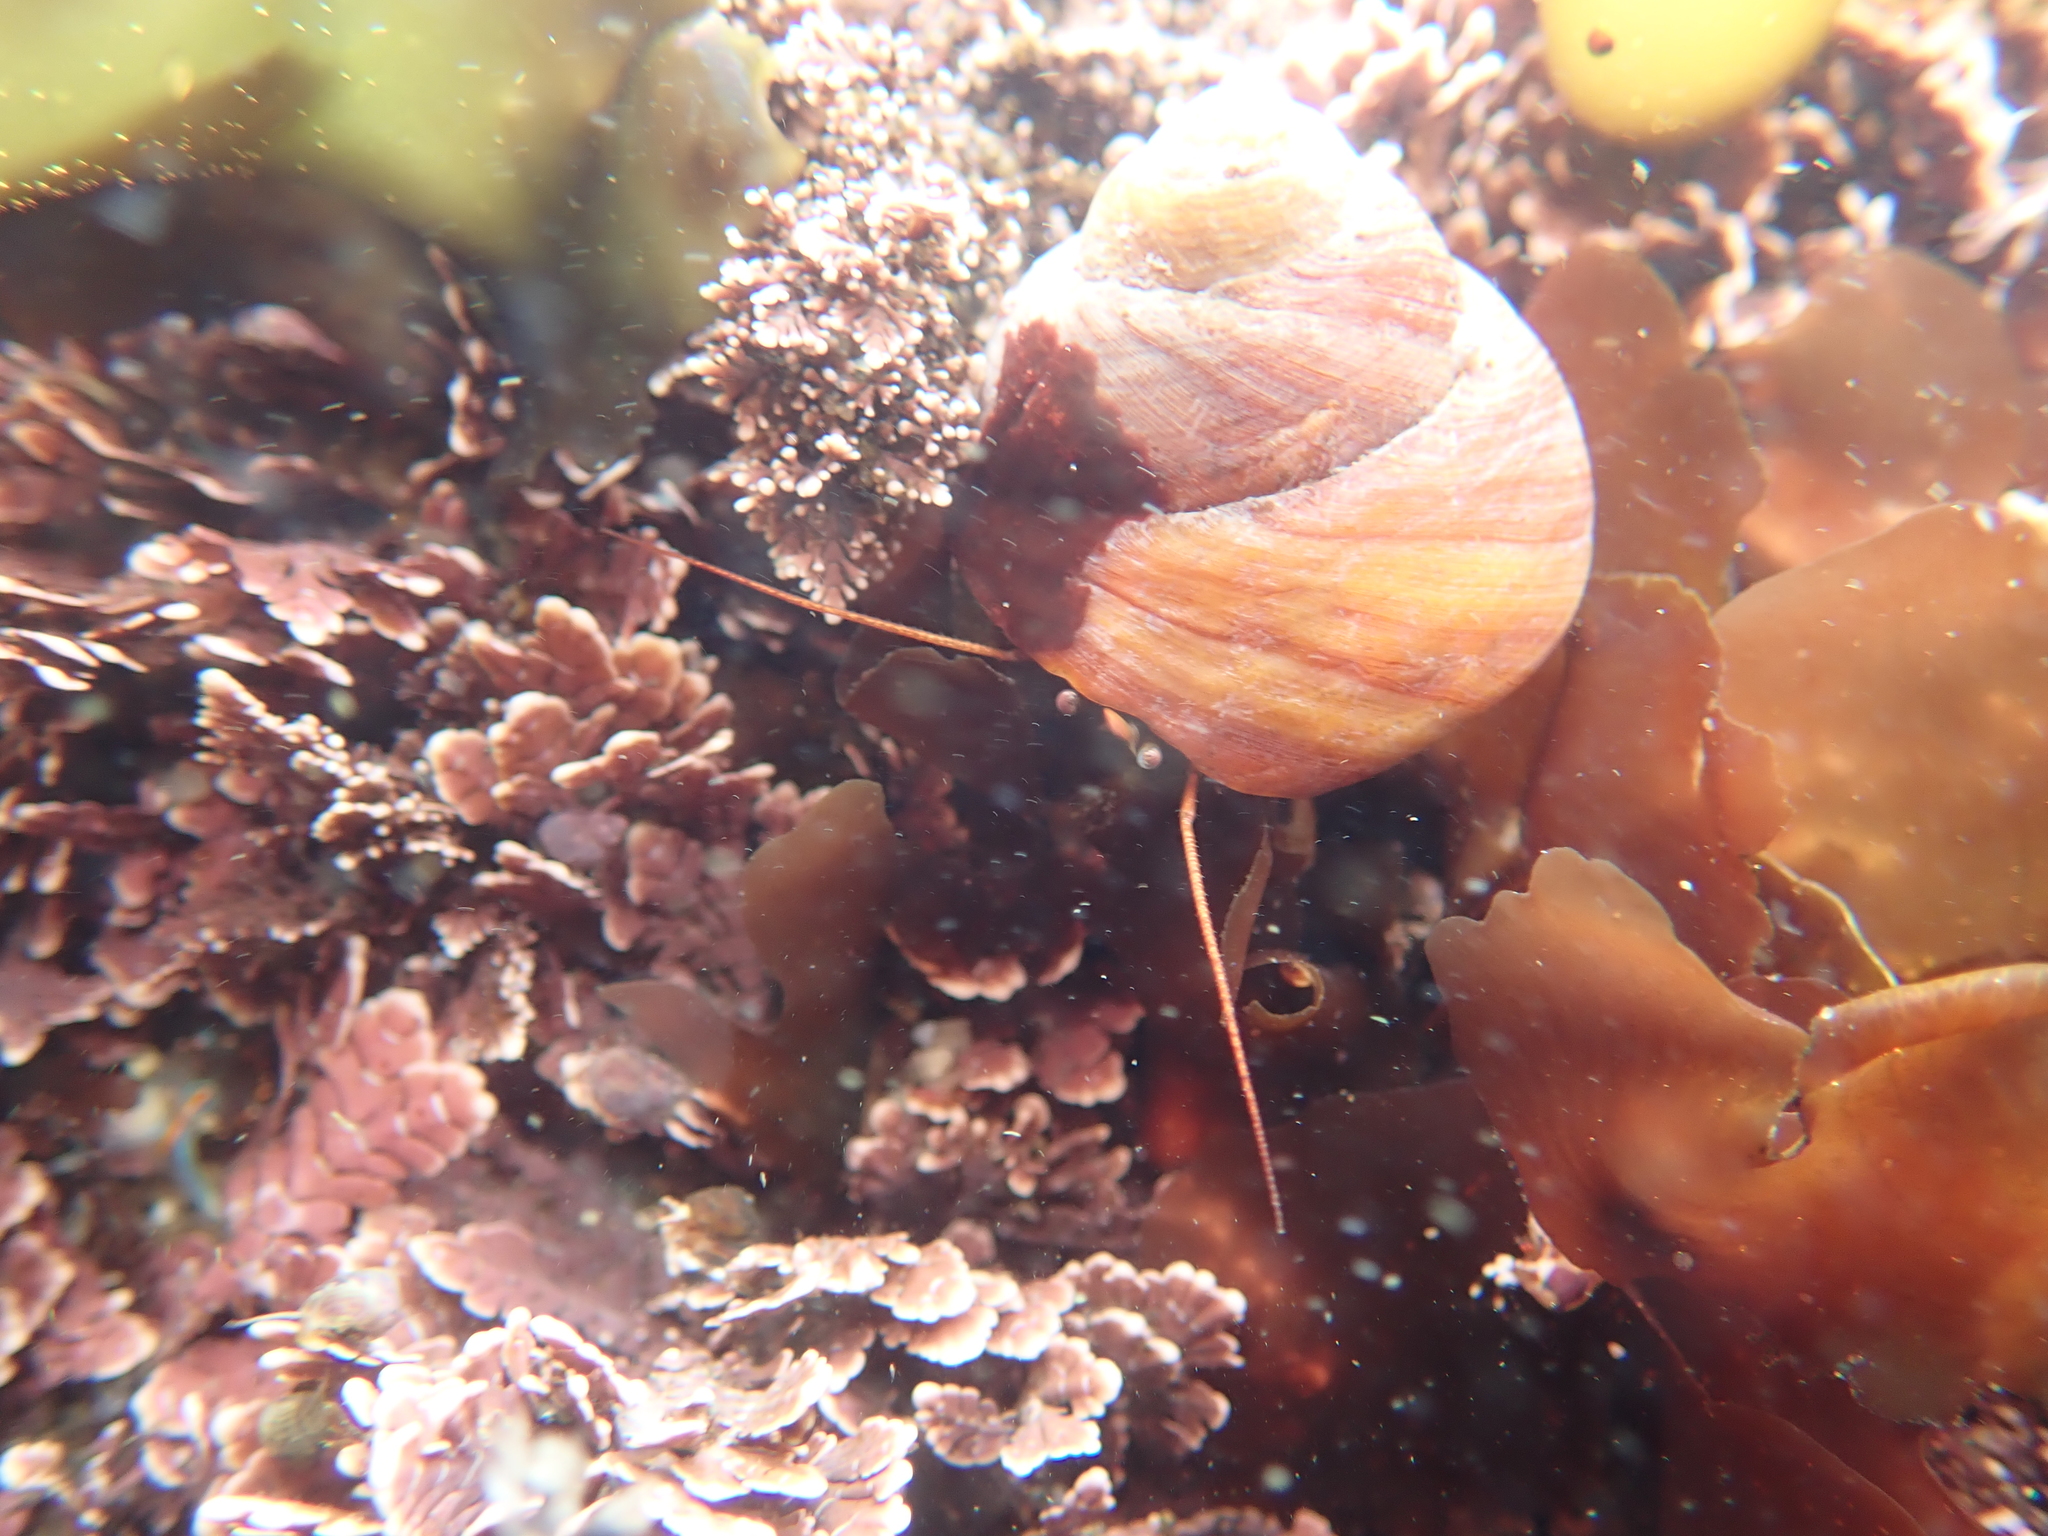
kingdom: Animalia
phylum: Arthropoda
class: Malacostraca
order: Decapoda
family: Paguridae
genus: Pagurus
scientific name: Pagurus
